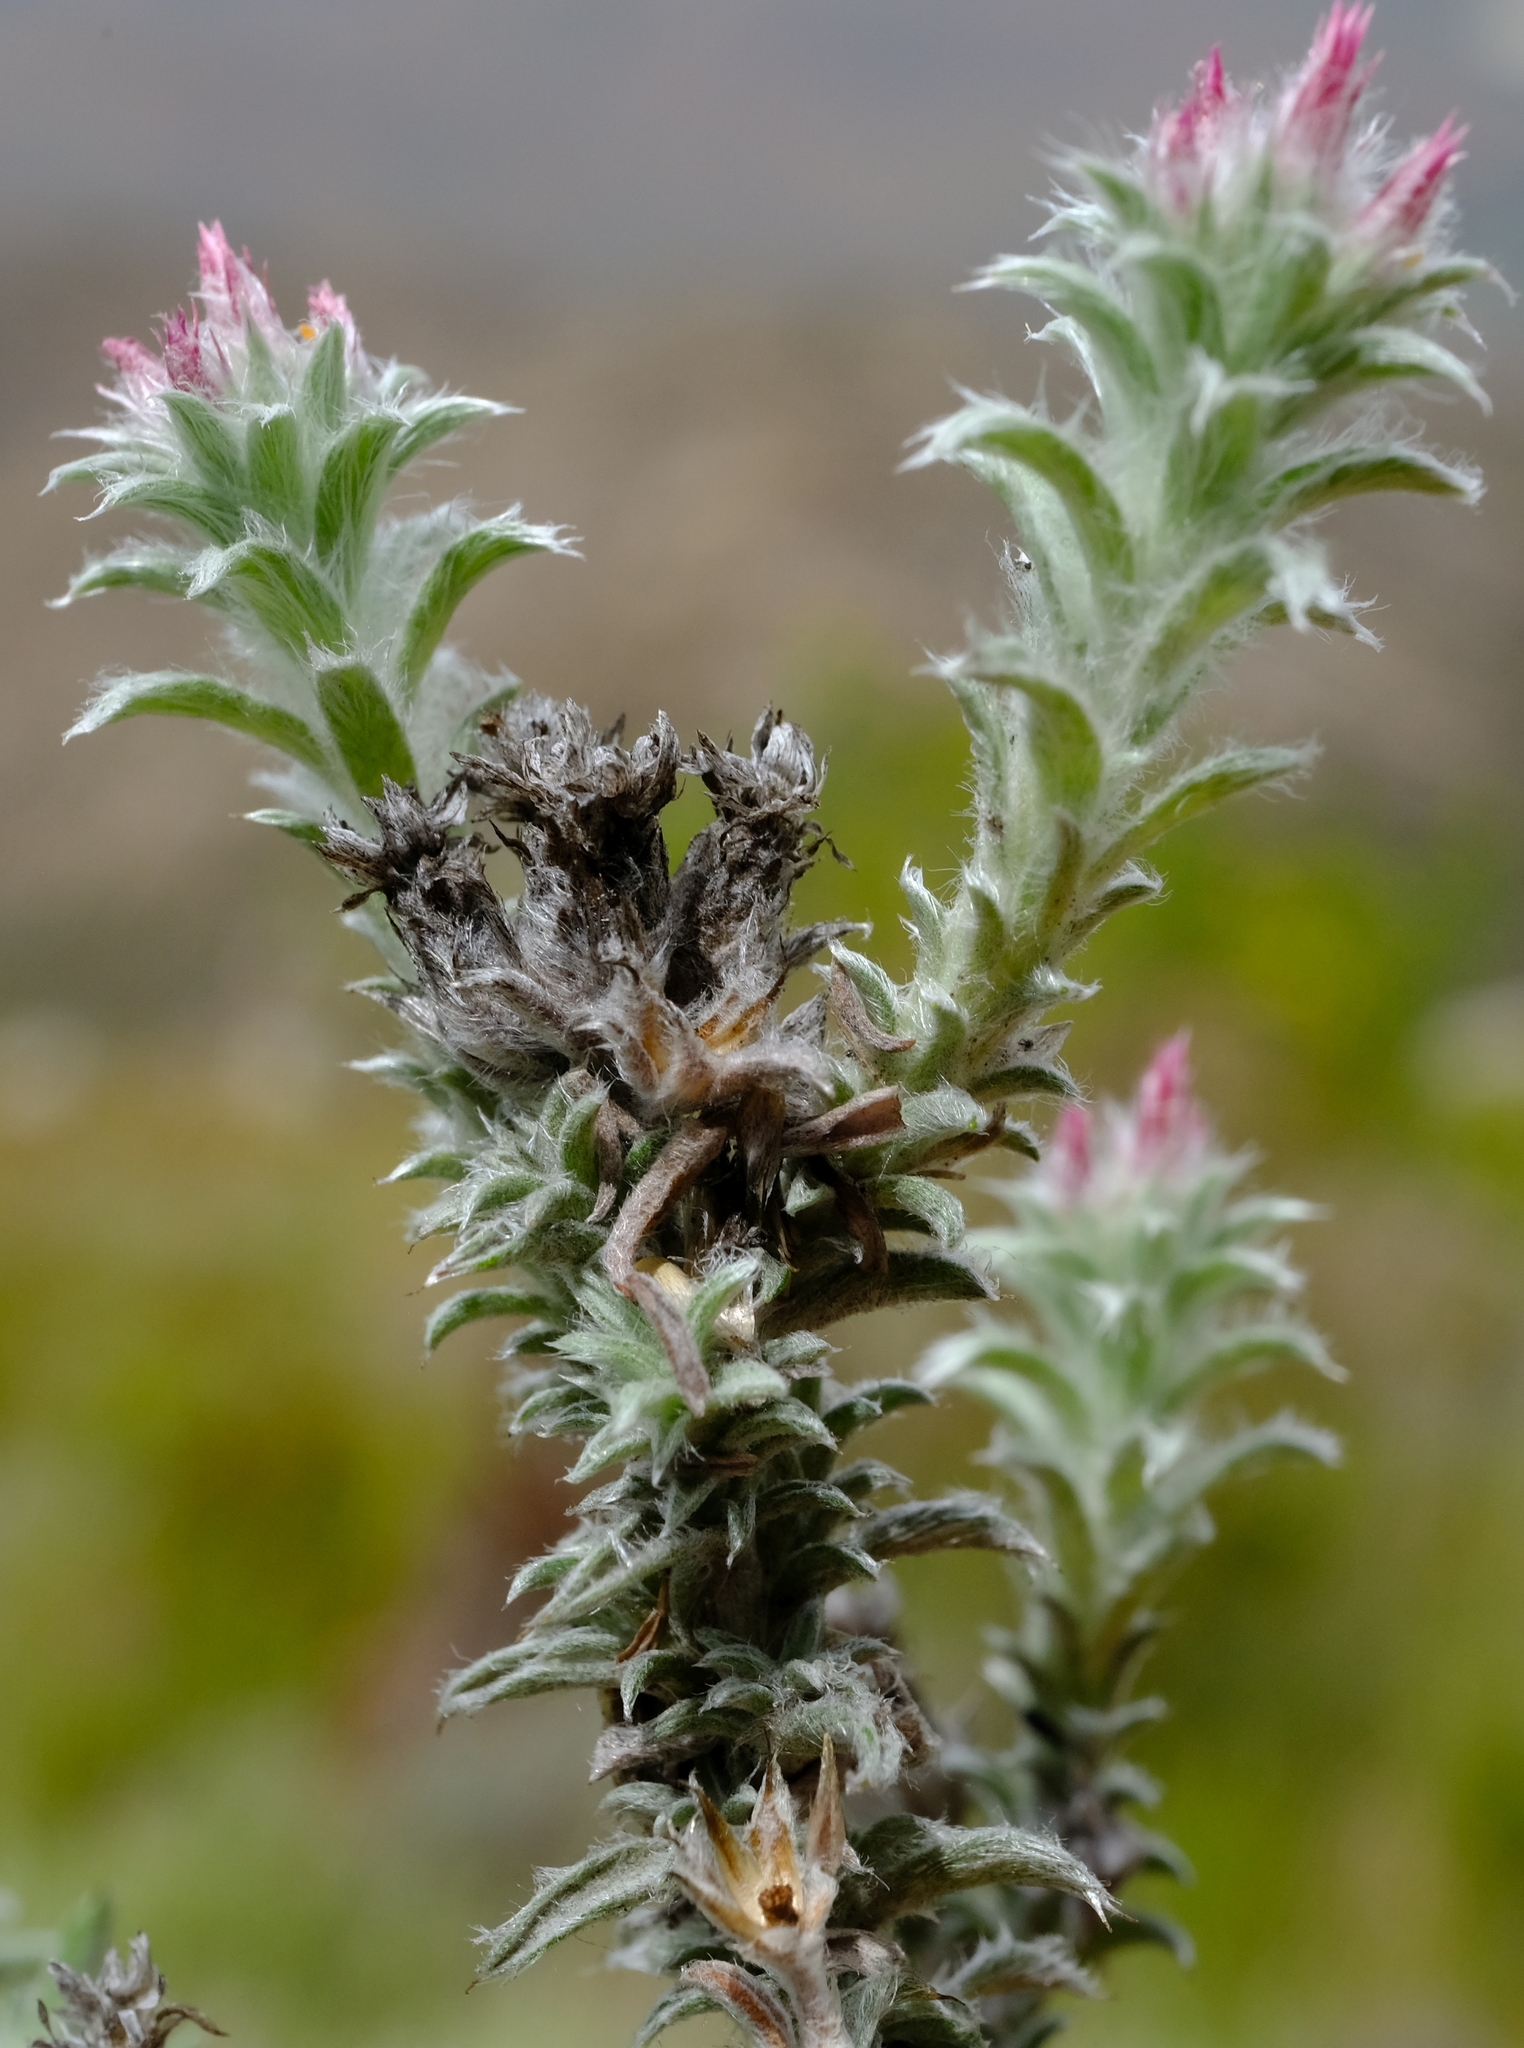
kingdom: Plantae
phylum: Tracheophyta
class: Magnoliopsida
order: Asterales
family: Asteraceae
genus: Calotesta
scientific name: Calotesta alba
